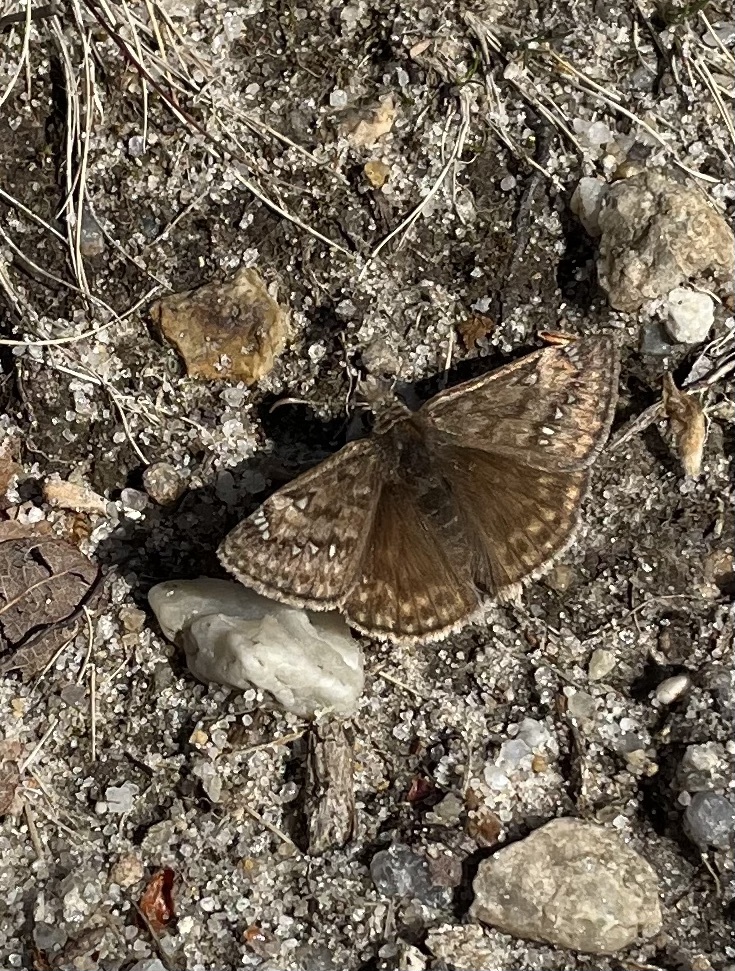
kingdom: Animalia
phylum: Arthropoda
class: Insecta
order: Lepidoptera
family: Hesperiidae
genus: Erynnis
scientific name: Erynnis juvenalis
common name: Juvenal's duskywing
